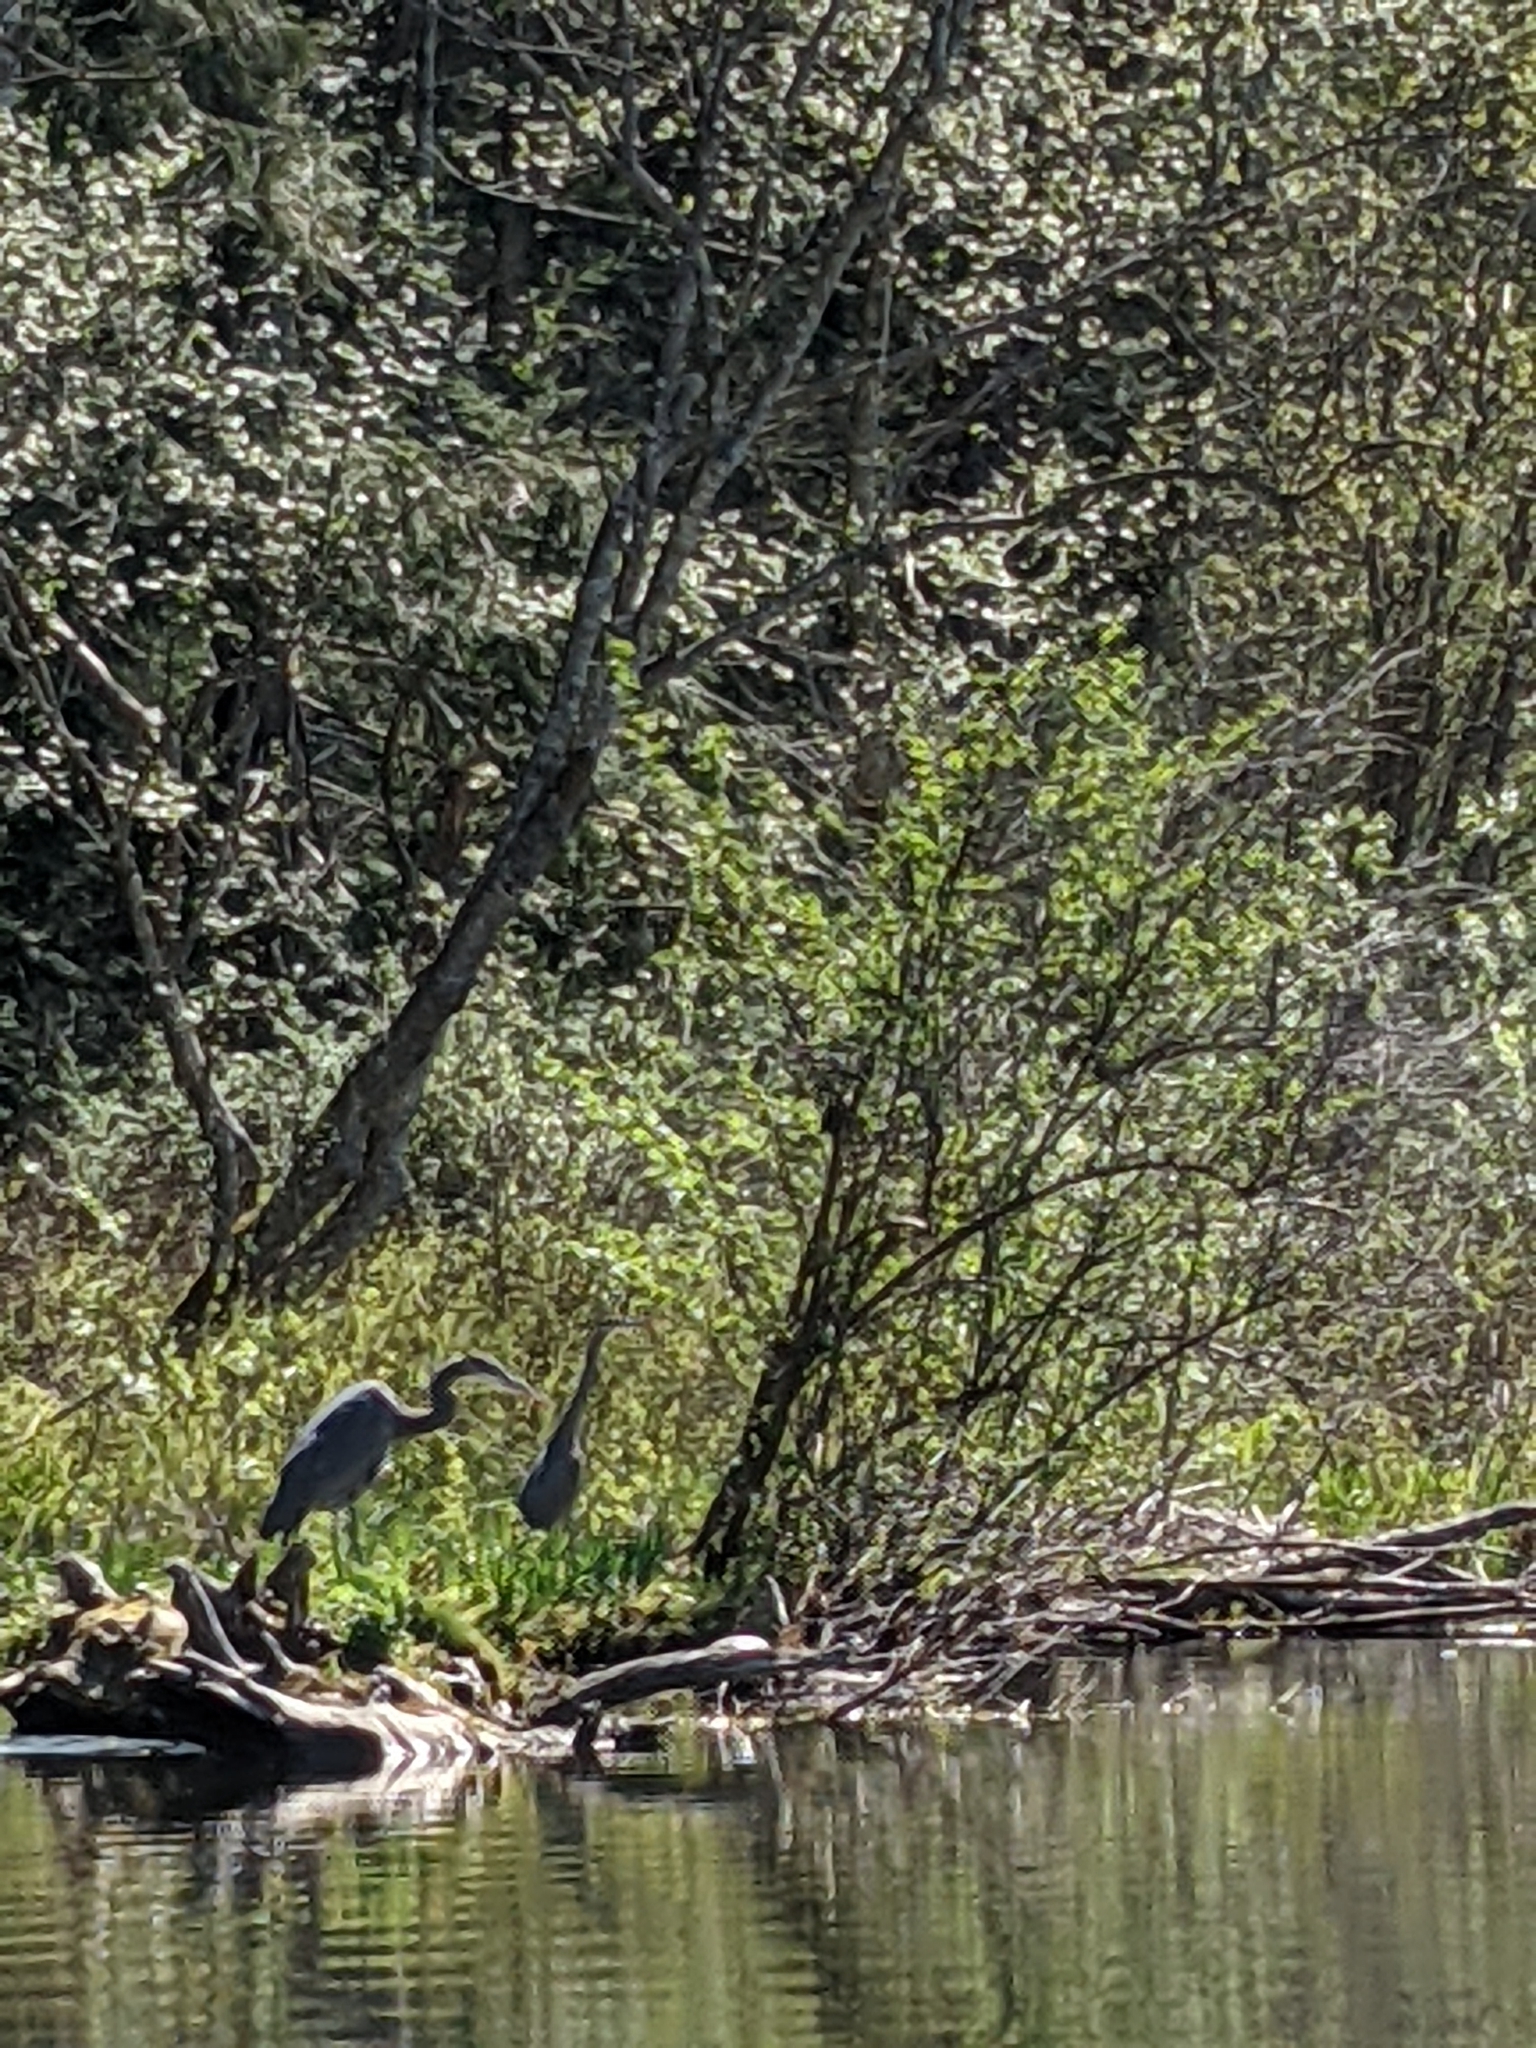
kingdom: Animalia
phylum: Chordata
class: Aves
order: Pelecaniformes
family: Ardeidae
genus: Ardea
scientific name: Ardea herodias
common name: Great blue heron
